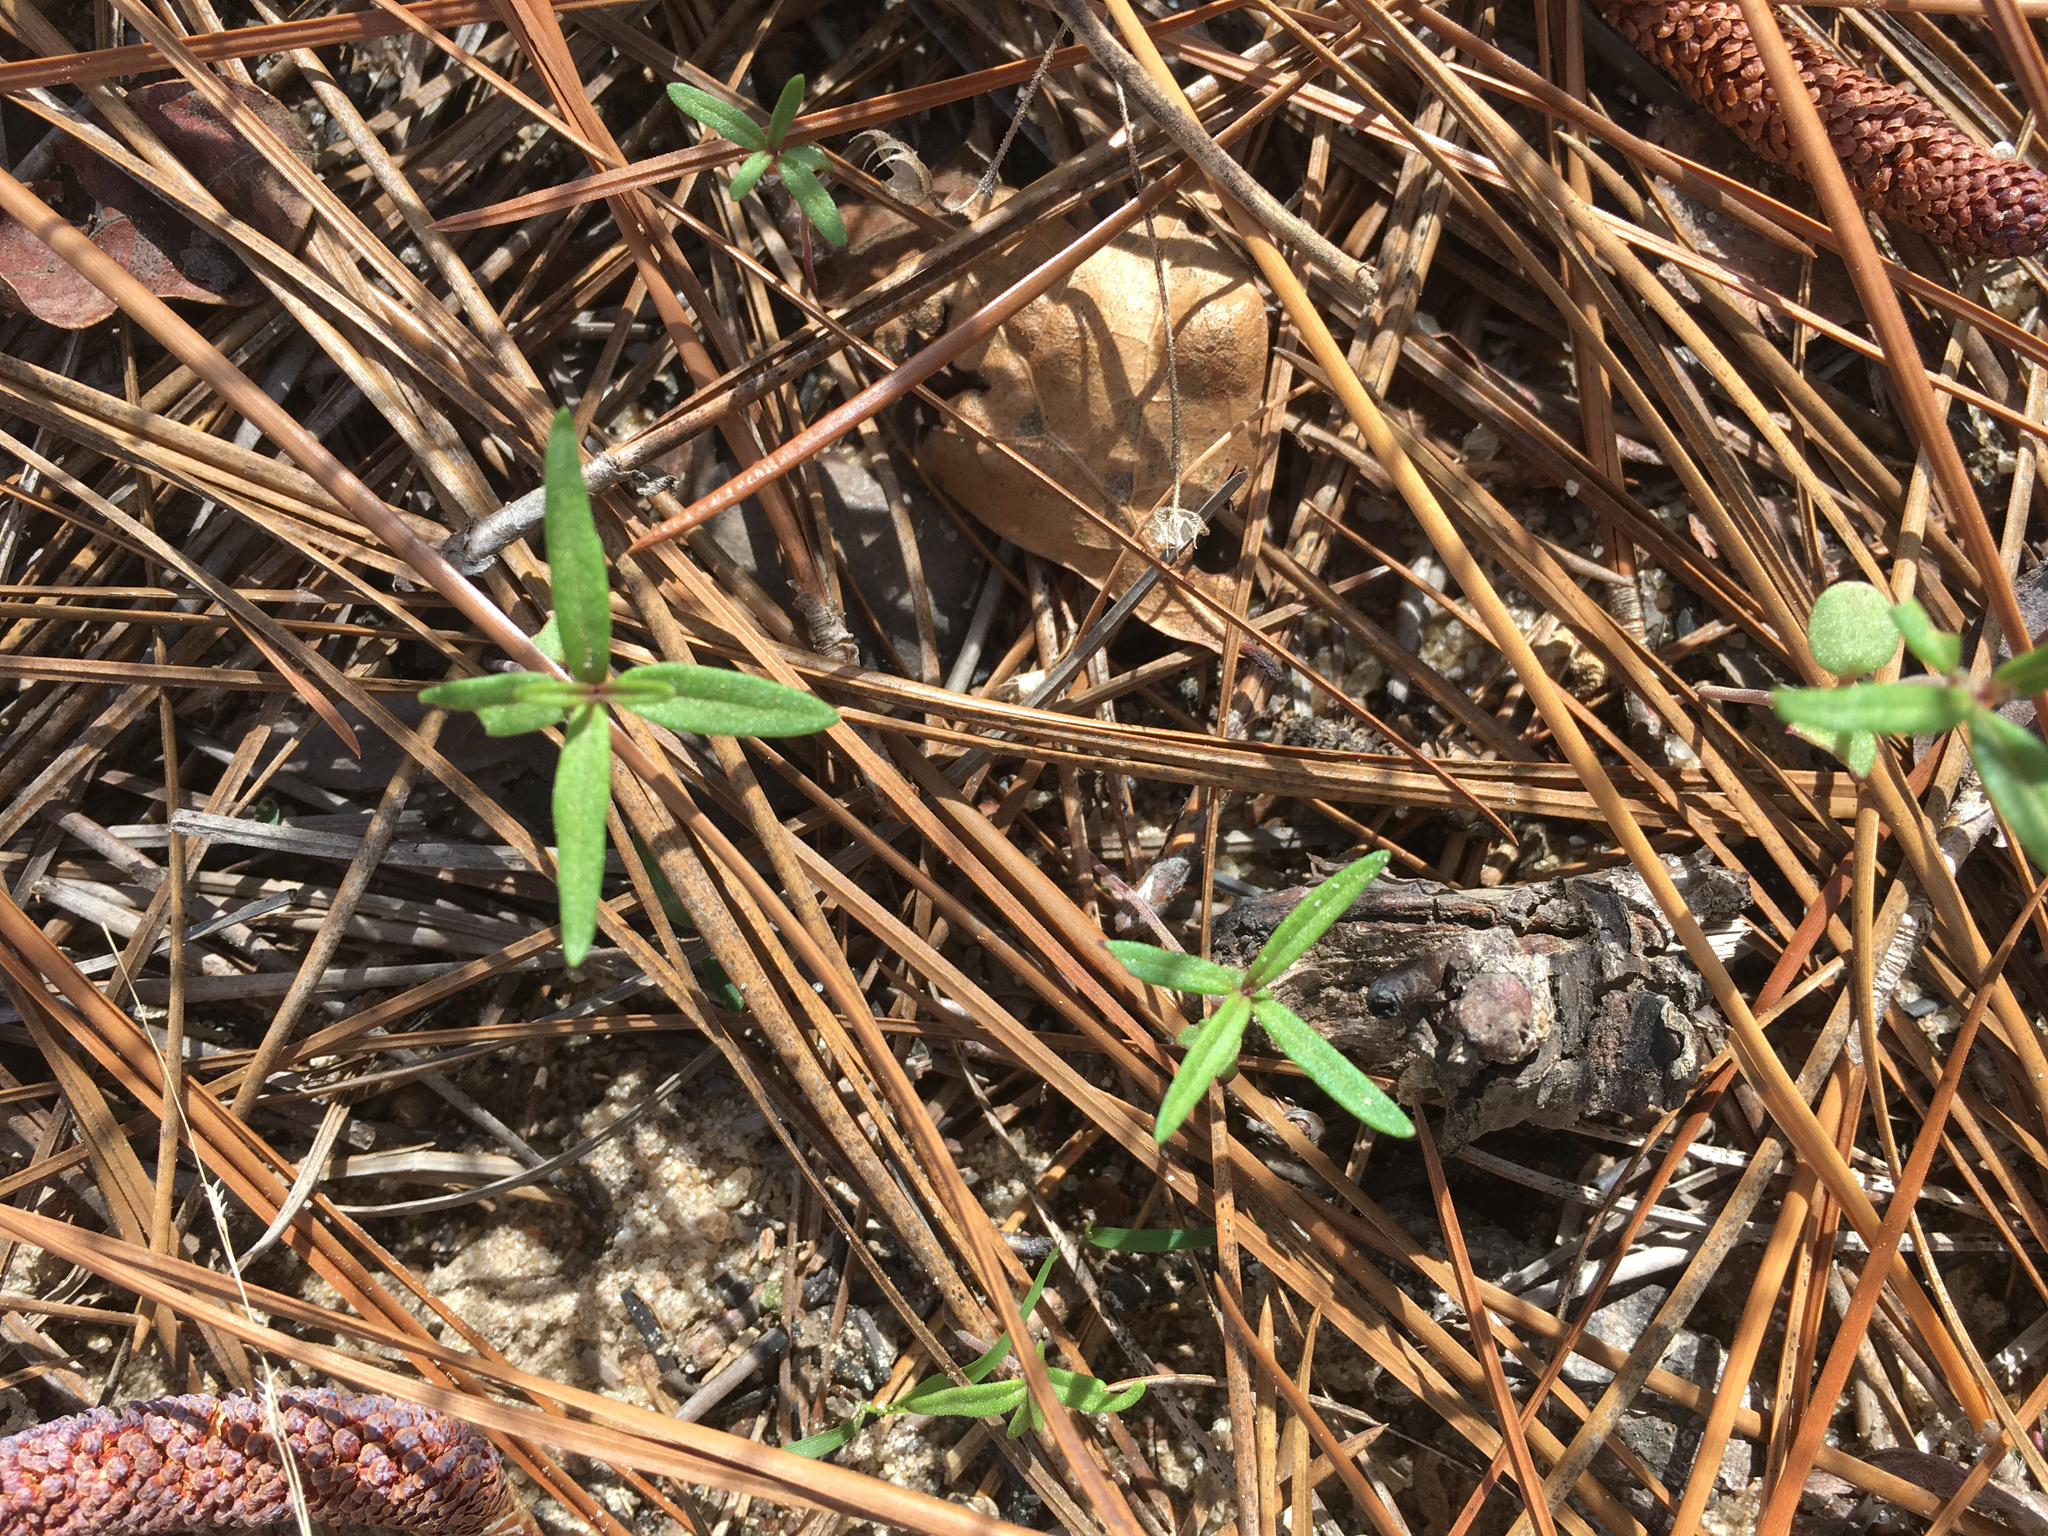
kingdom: Plantae
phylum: Tracheophyta
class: Magnoliopsida
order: Lamiales
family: Lamiaceae
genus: Trichostema
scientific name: Trichostema setaceum
